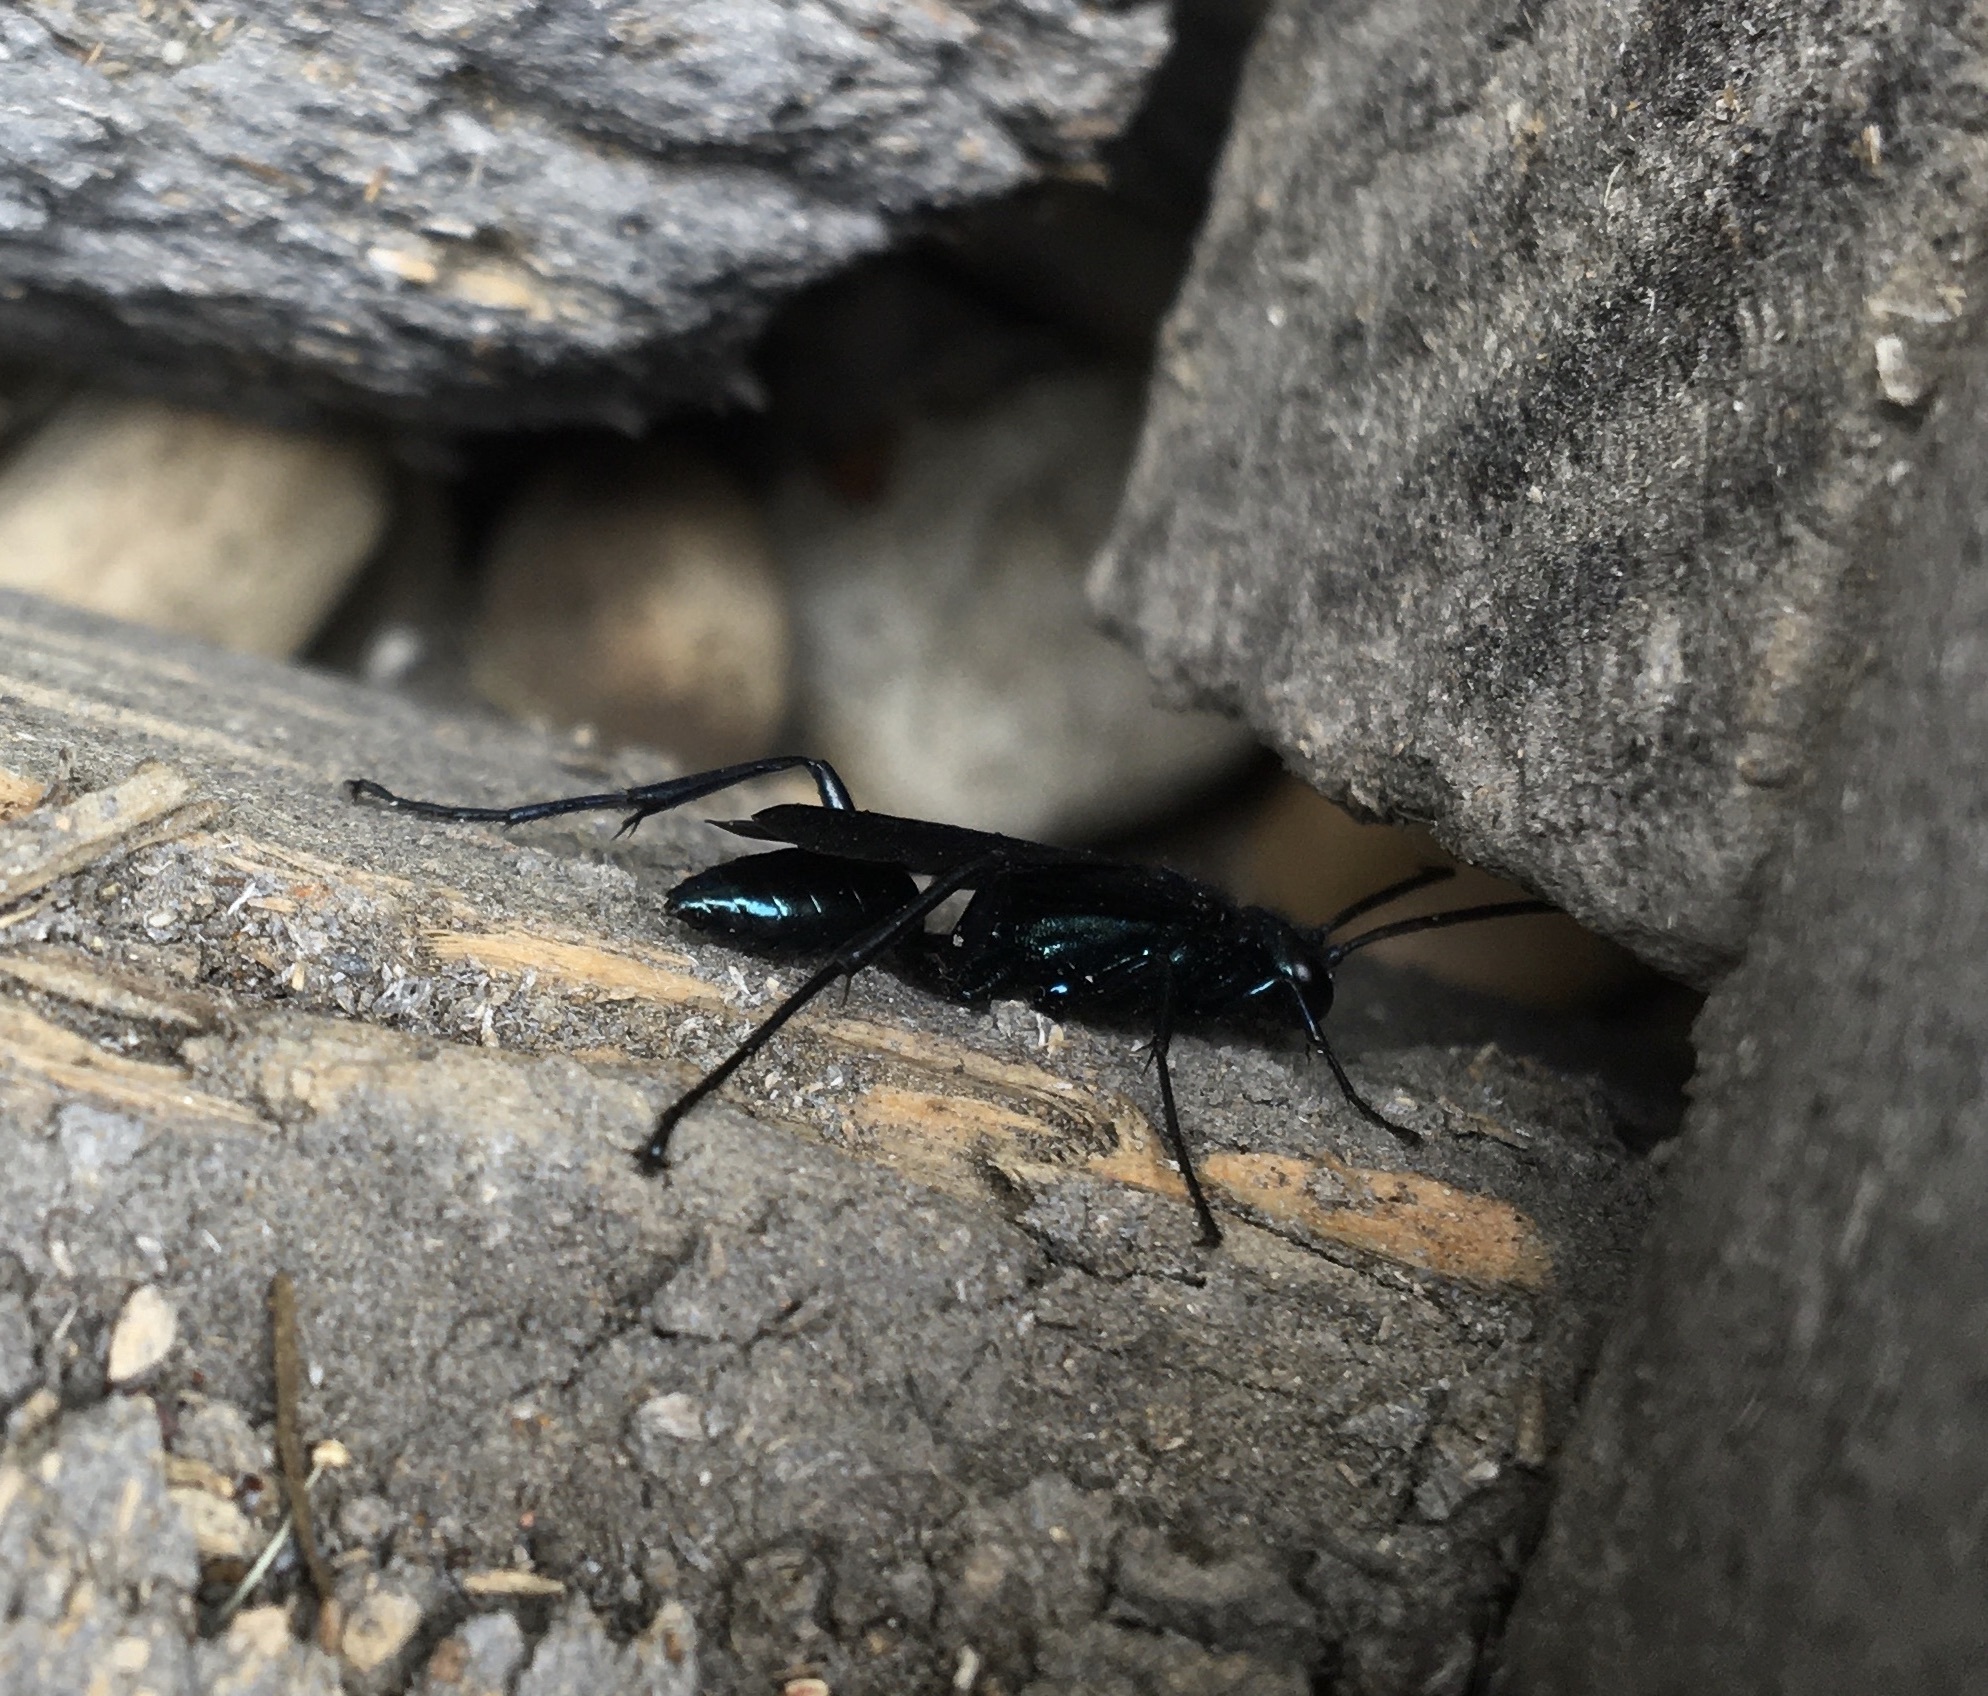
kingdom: Animalia
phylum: Arthropoda
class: Insecta
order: Hymenoptera
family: Sphecidae
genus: Chalybion
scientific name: Chalybion californicum
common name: Mud dauber
